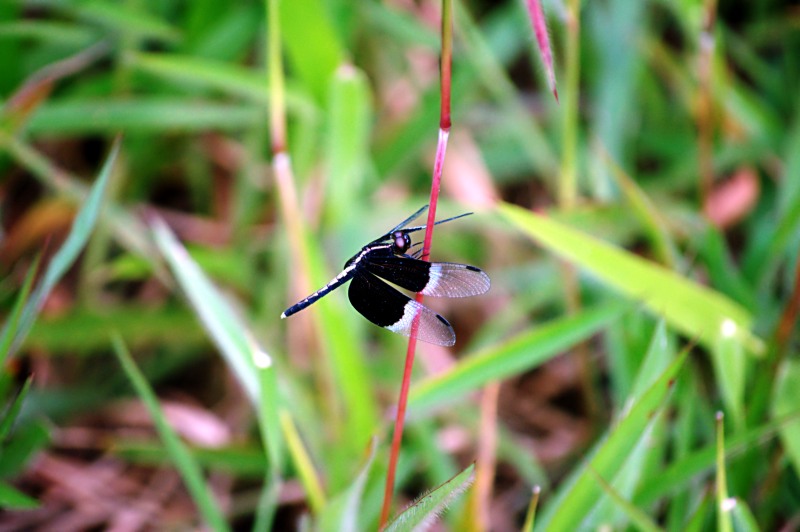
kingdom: Animalia
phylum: Arthropoda
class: Insecta
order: Odonata
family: Libellulidae
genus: Neurothemis
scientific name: Neurothemis tullia
